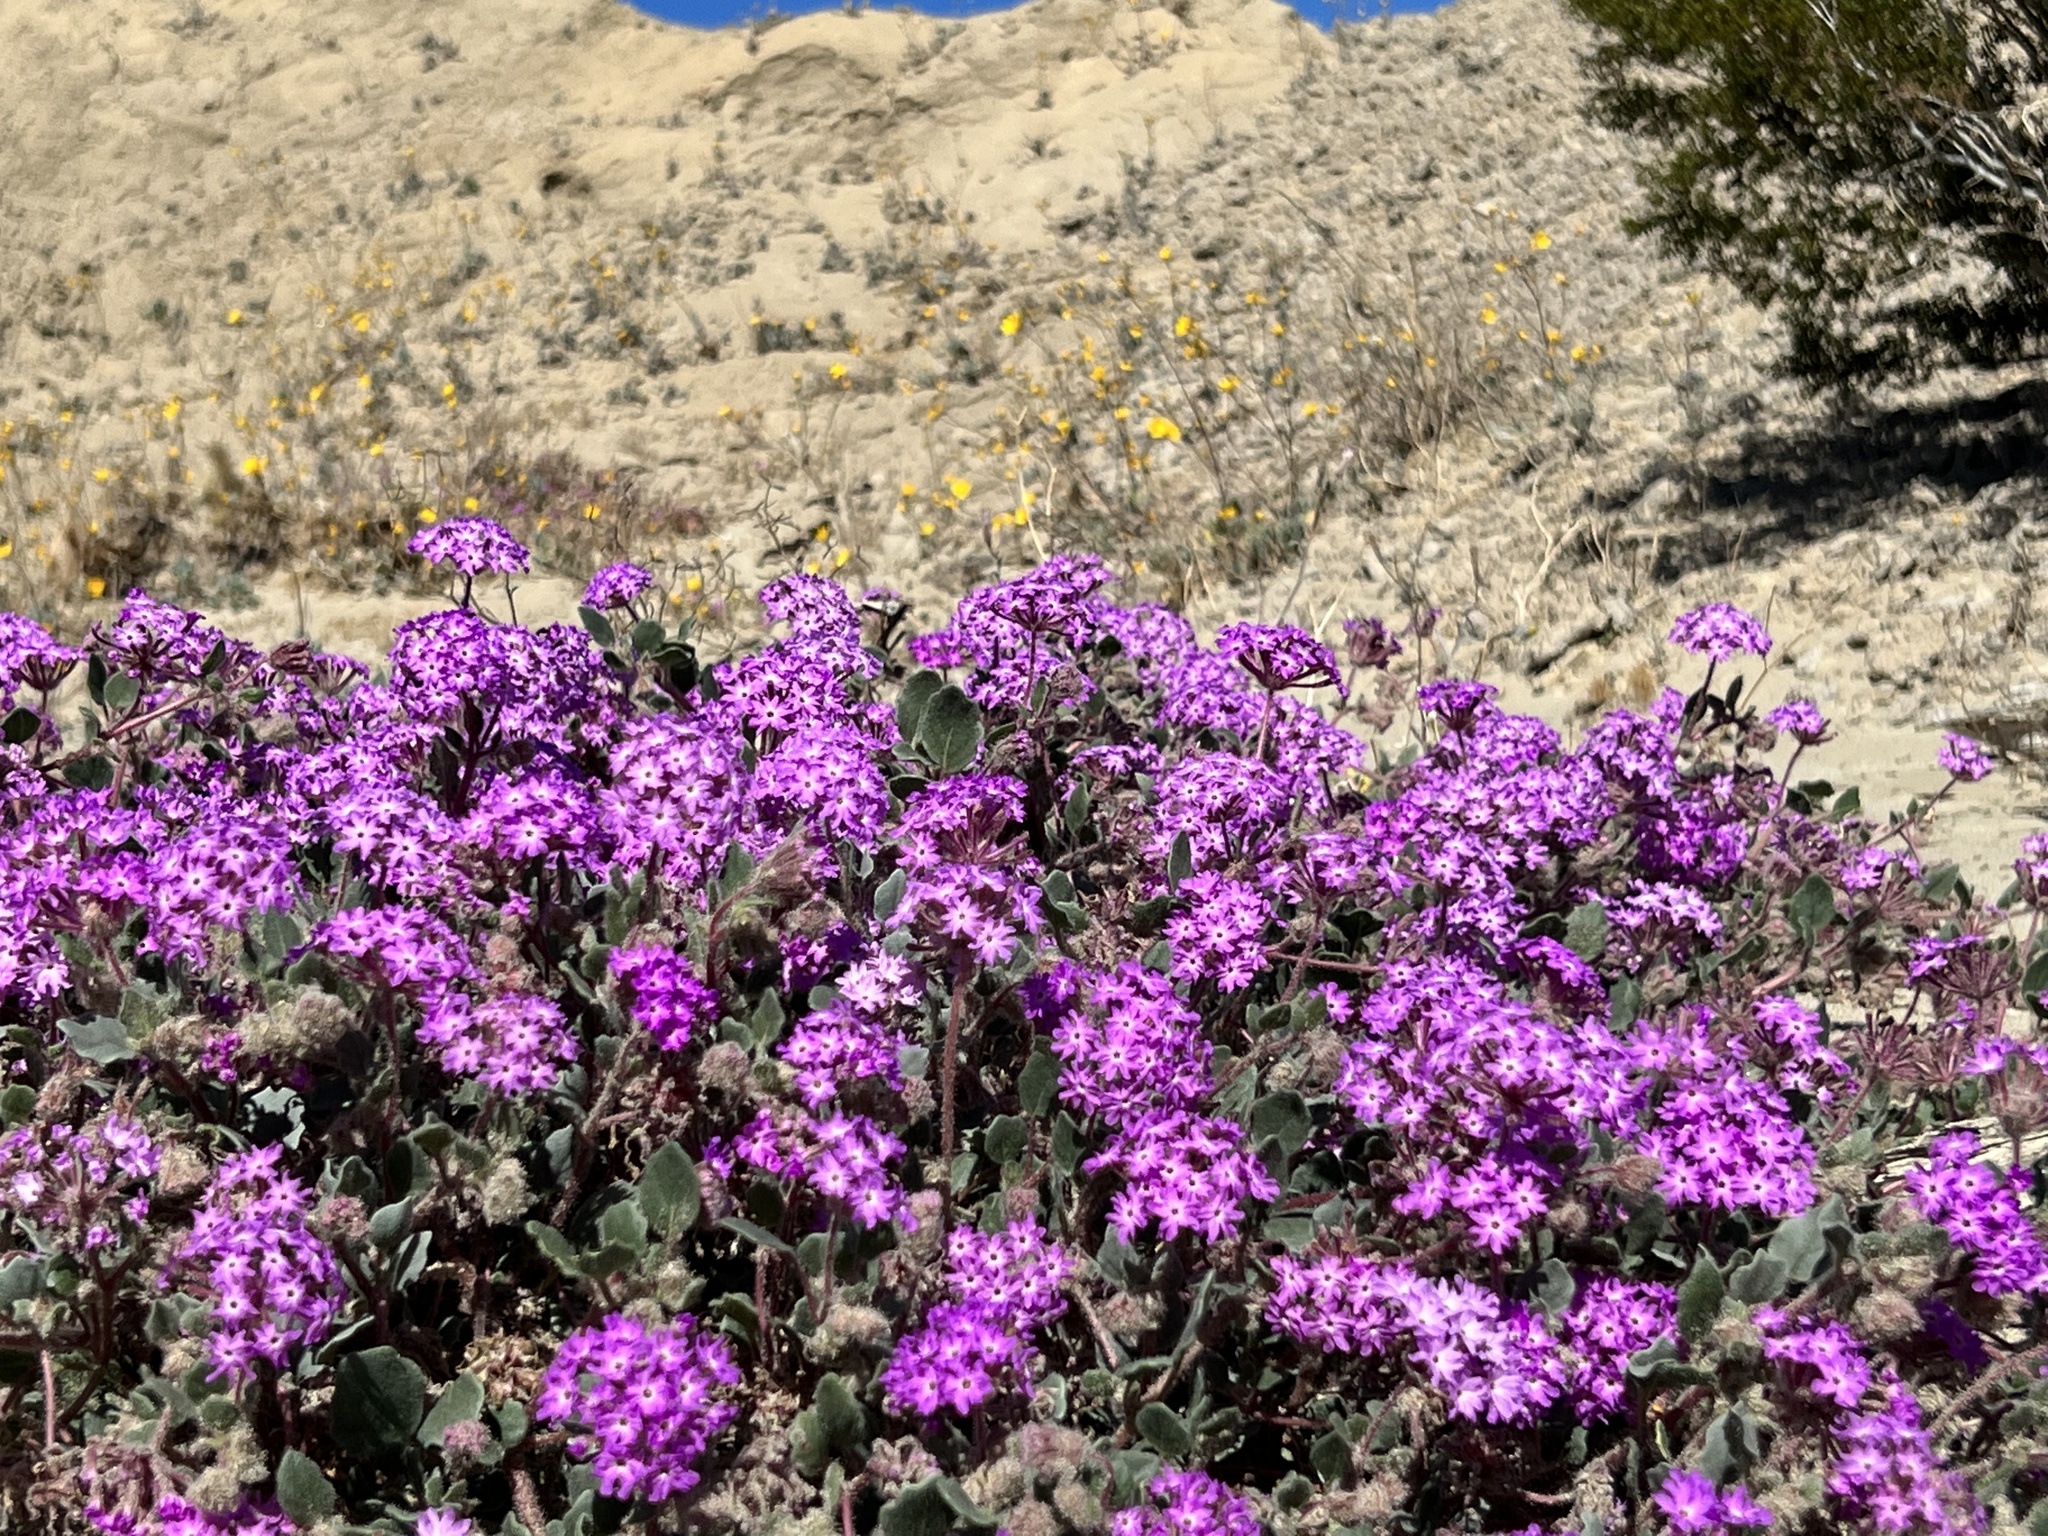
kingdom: Plantae
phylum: Tracheophyta
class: Magnoliopsida
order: Caryophyllales
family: Nyctaginaceae
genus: Abronia
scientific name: Abronia villosa
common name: Desert sand-verbena
